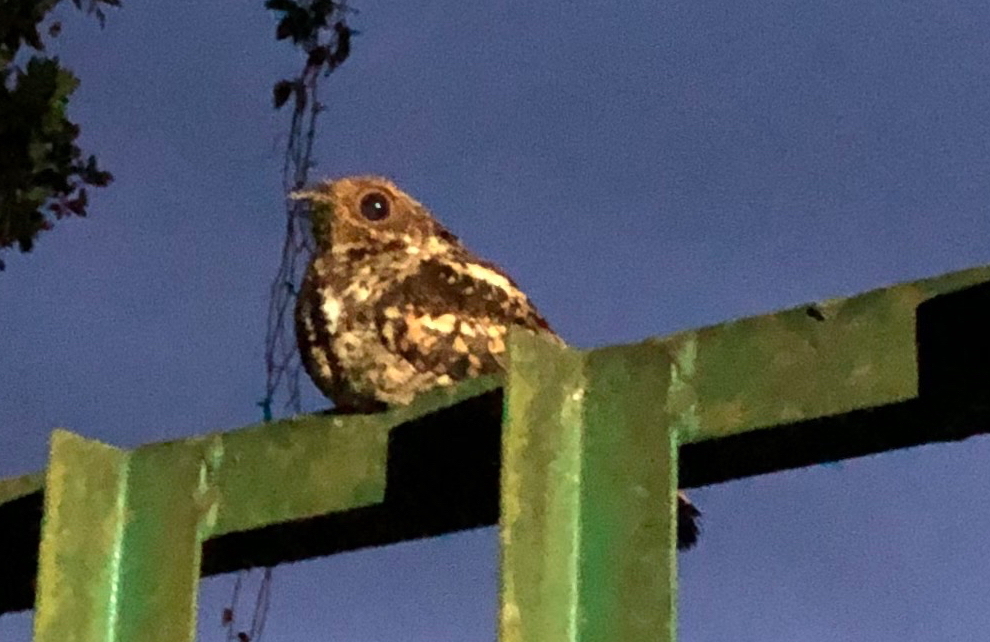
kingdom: Animalia
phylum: Chordata
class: Aves
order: Caprimulgiformes
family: Caprimulgidae
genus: Caprimulgus
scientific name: Caprimulgus pulchellus
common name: Salvadori's nightjar
